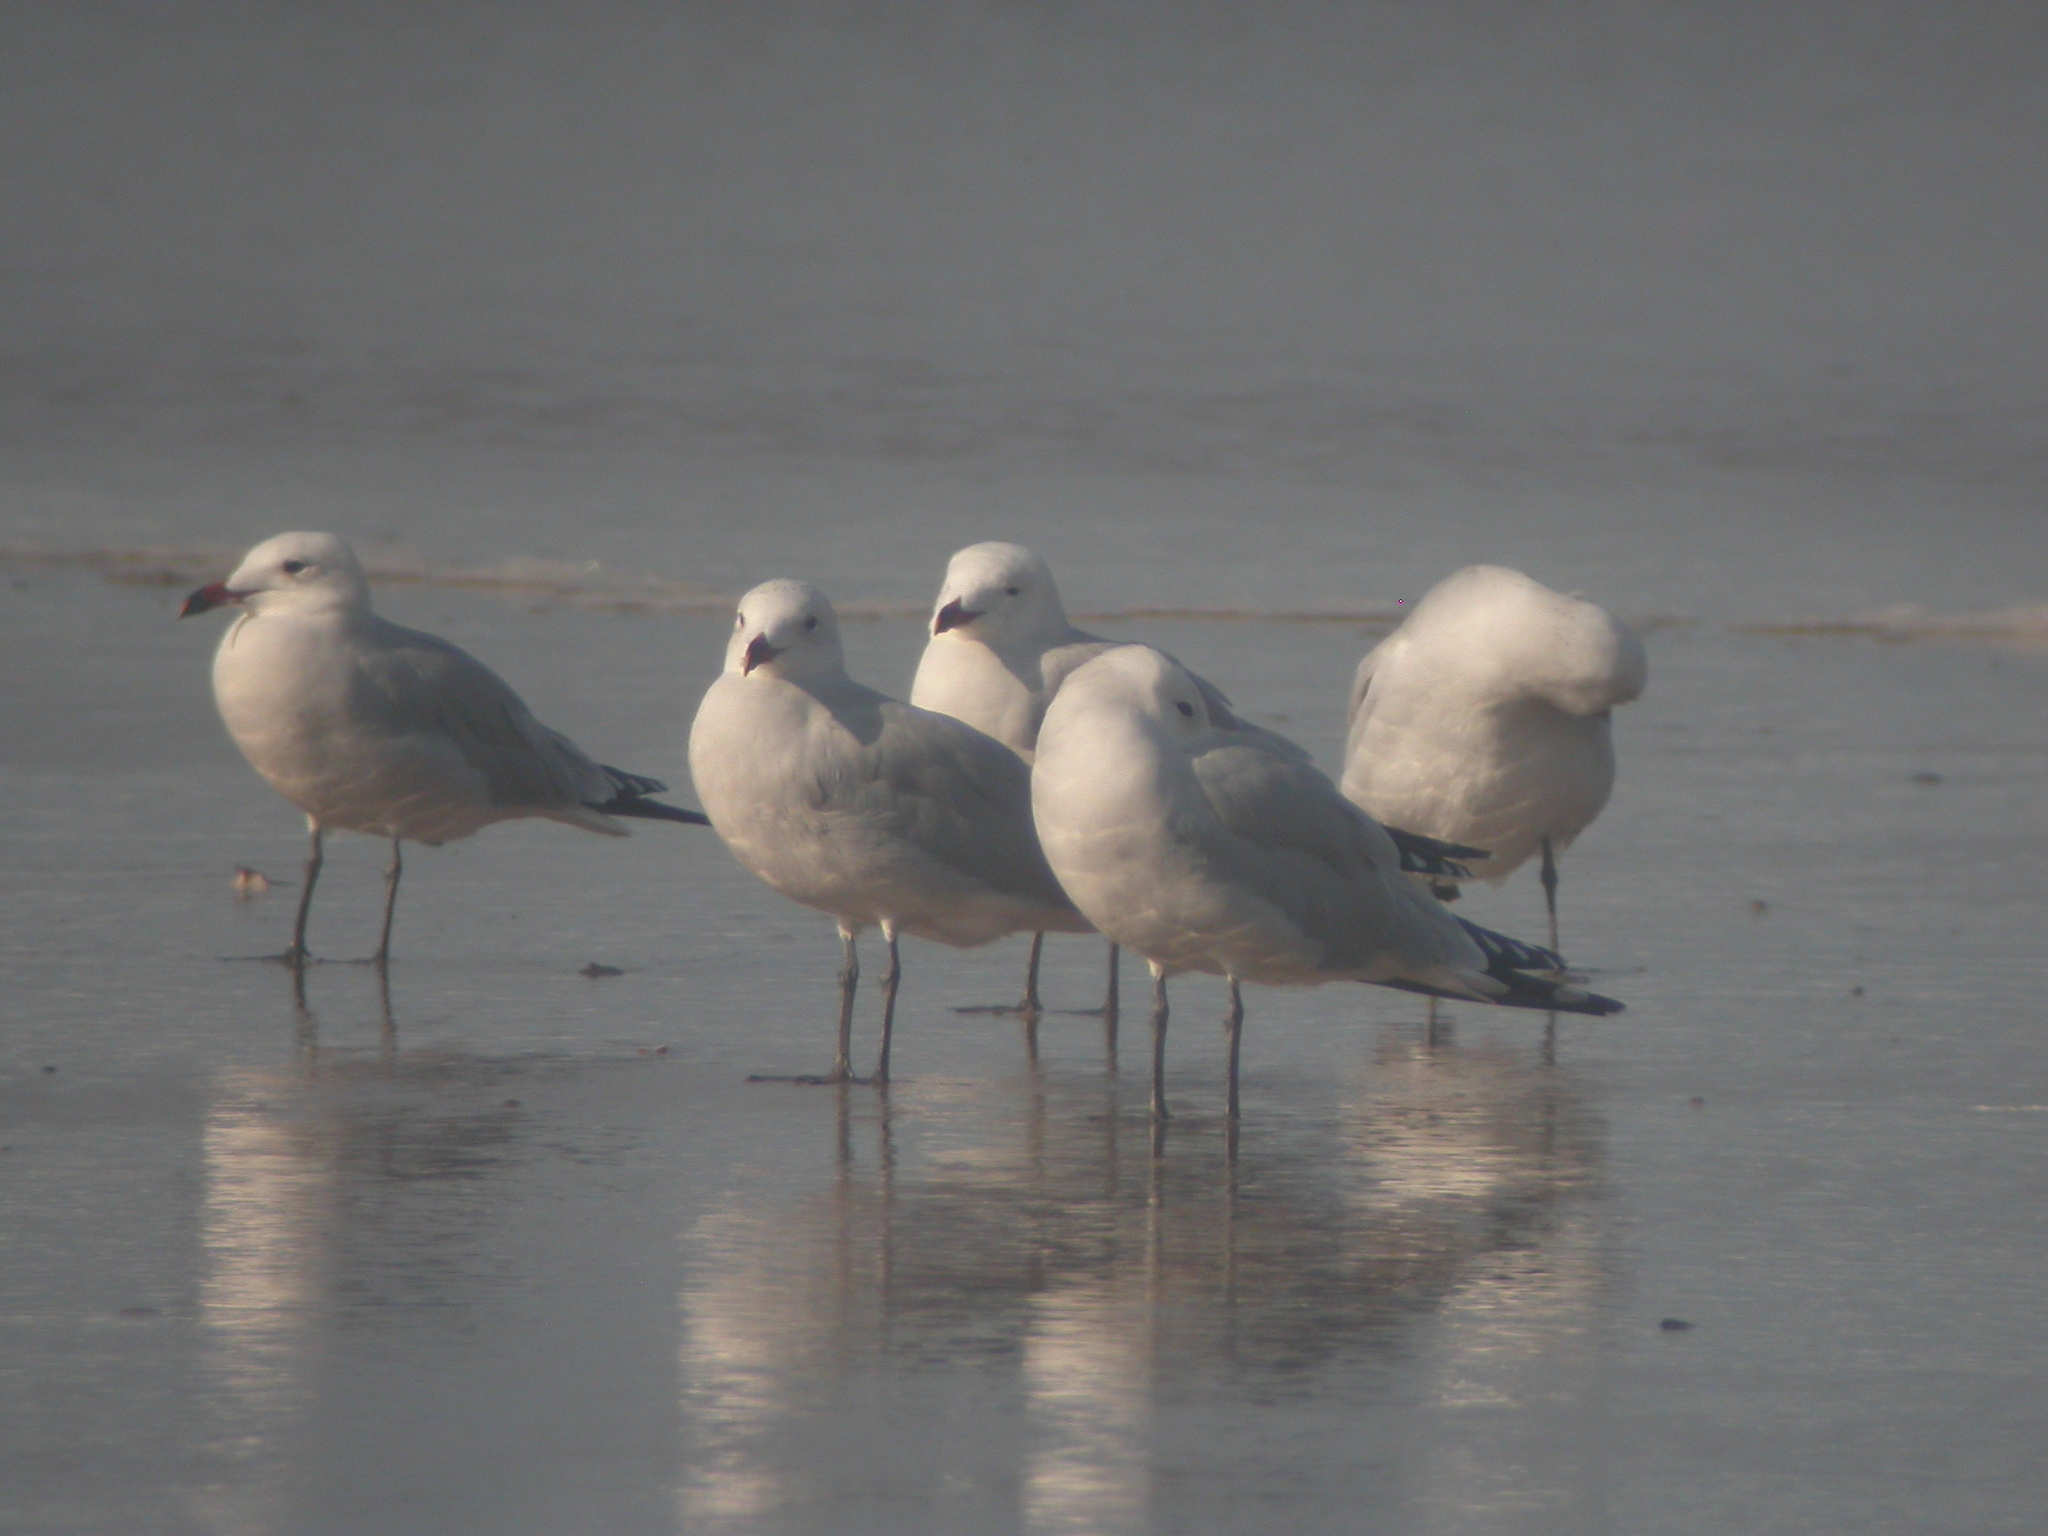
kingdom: Animalia
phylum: Chordata
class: Aves
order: Charadriiformes
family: Laridae
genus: Ichthyaetus
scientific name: Ichthyaetus audouinii
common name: Audouin's gull
